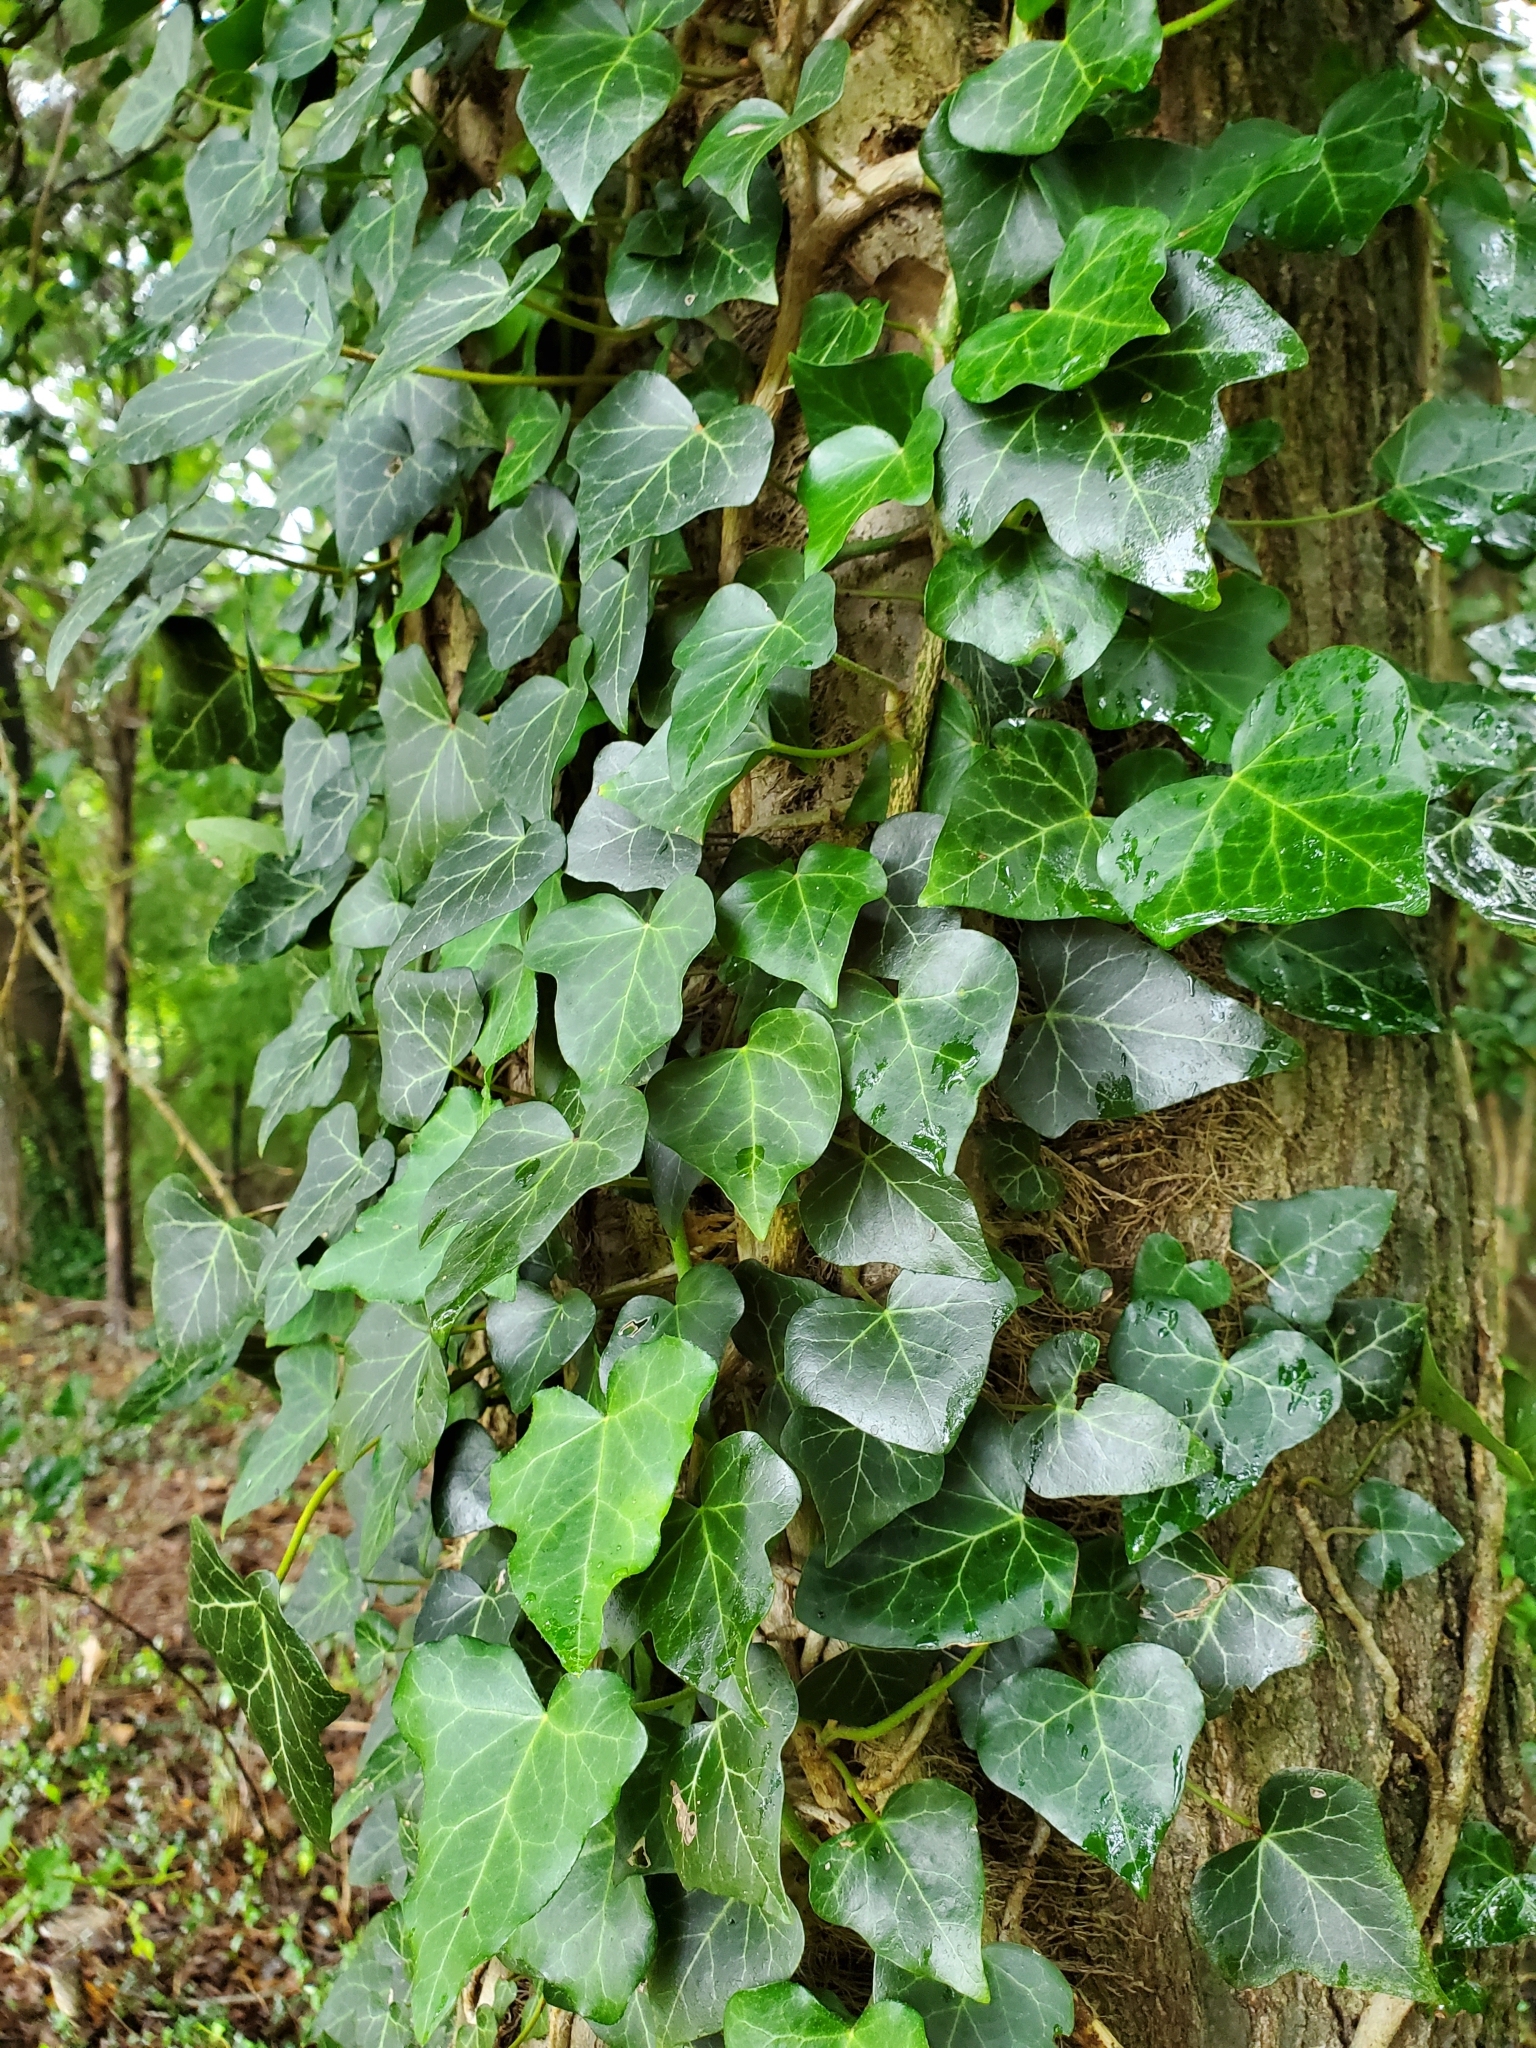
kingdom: Plantae
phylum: Tracheophyta
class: Magnoliopsida
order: Apiales
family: Araliaceae
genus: Hedera
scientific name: Hedera helix
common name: Ivy
